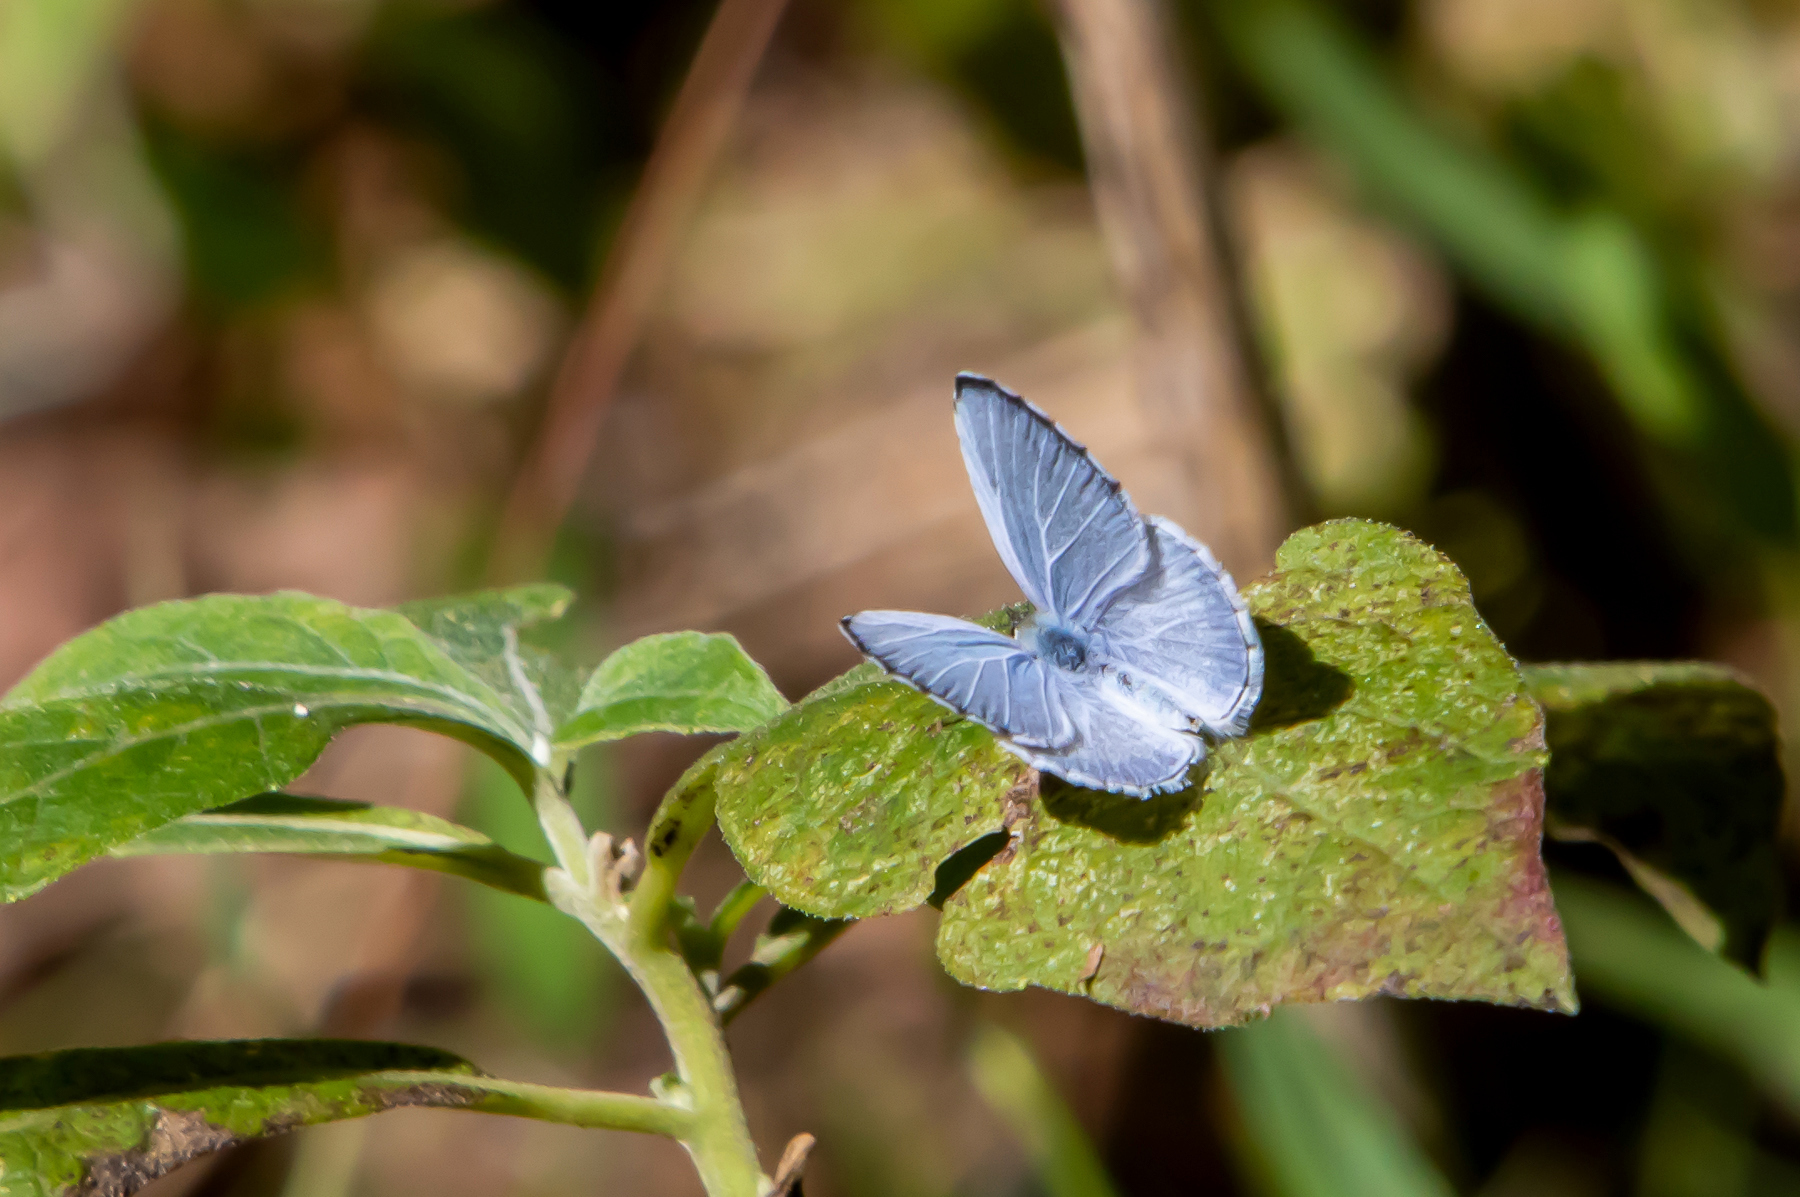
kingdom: Animalia
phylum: Arthropoda
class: Insecta
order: Lepidoptera
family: Lycaenidae
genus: Cyaniris
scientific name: Cyaniris neglecta
